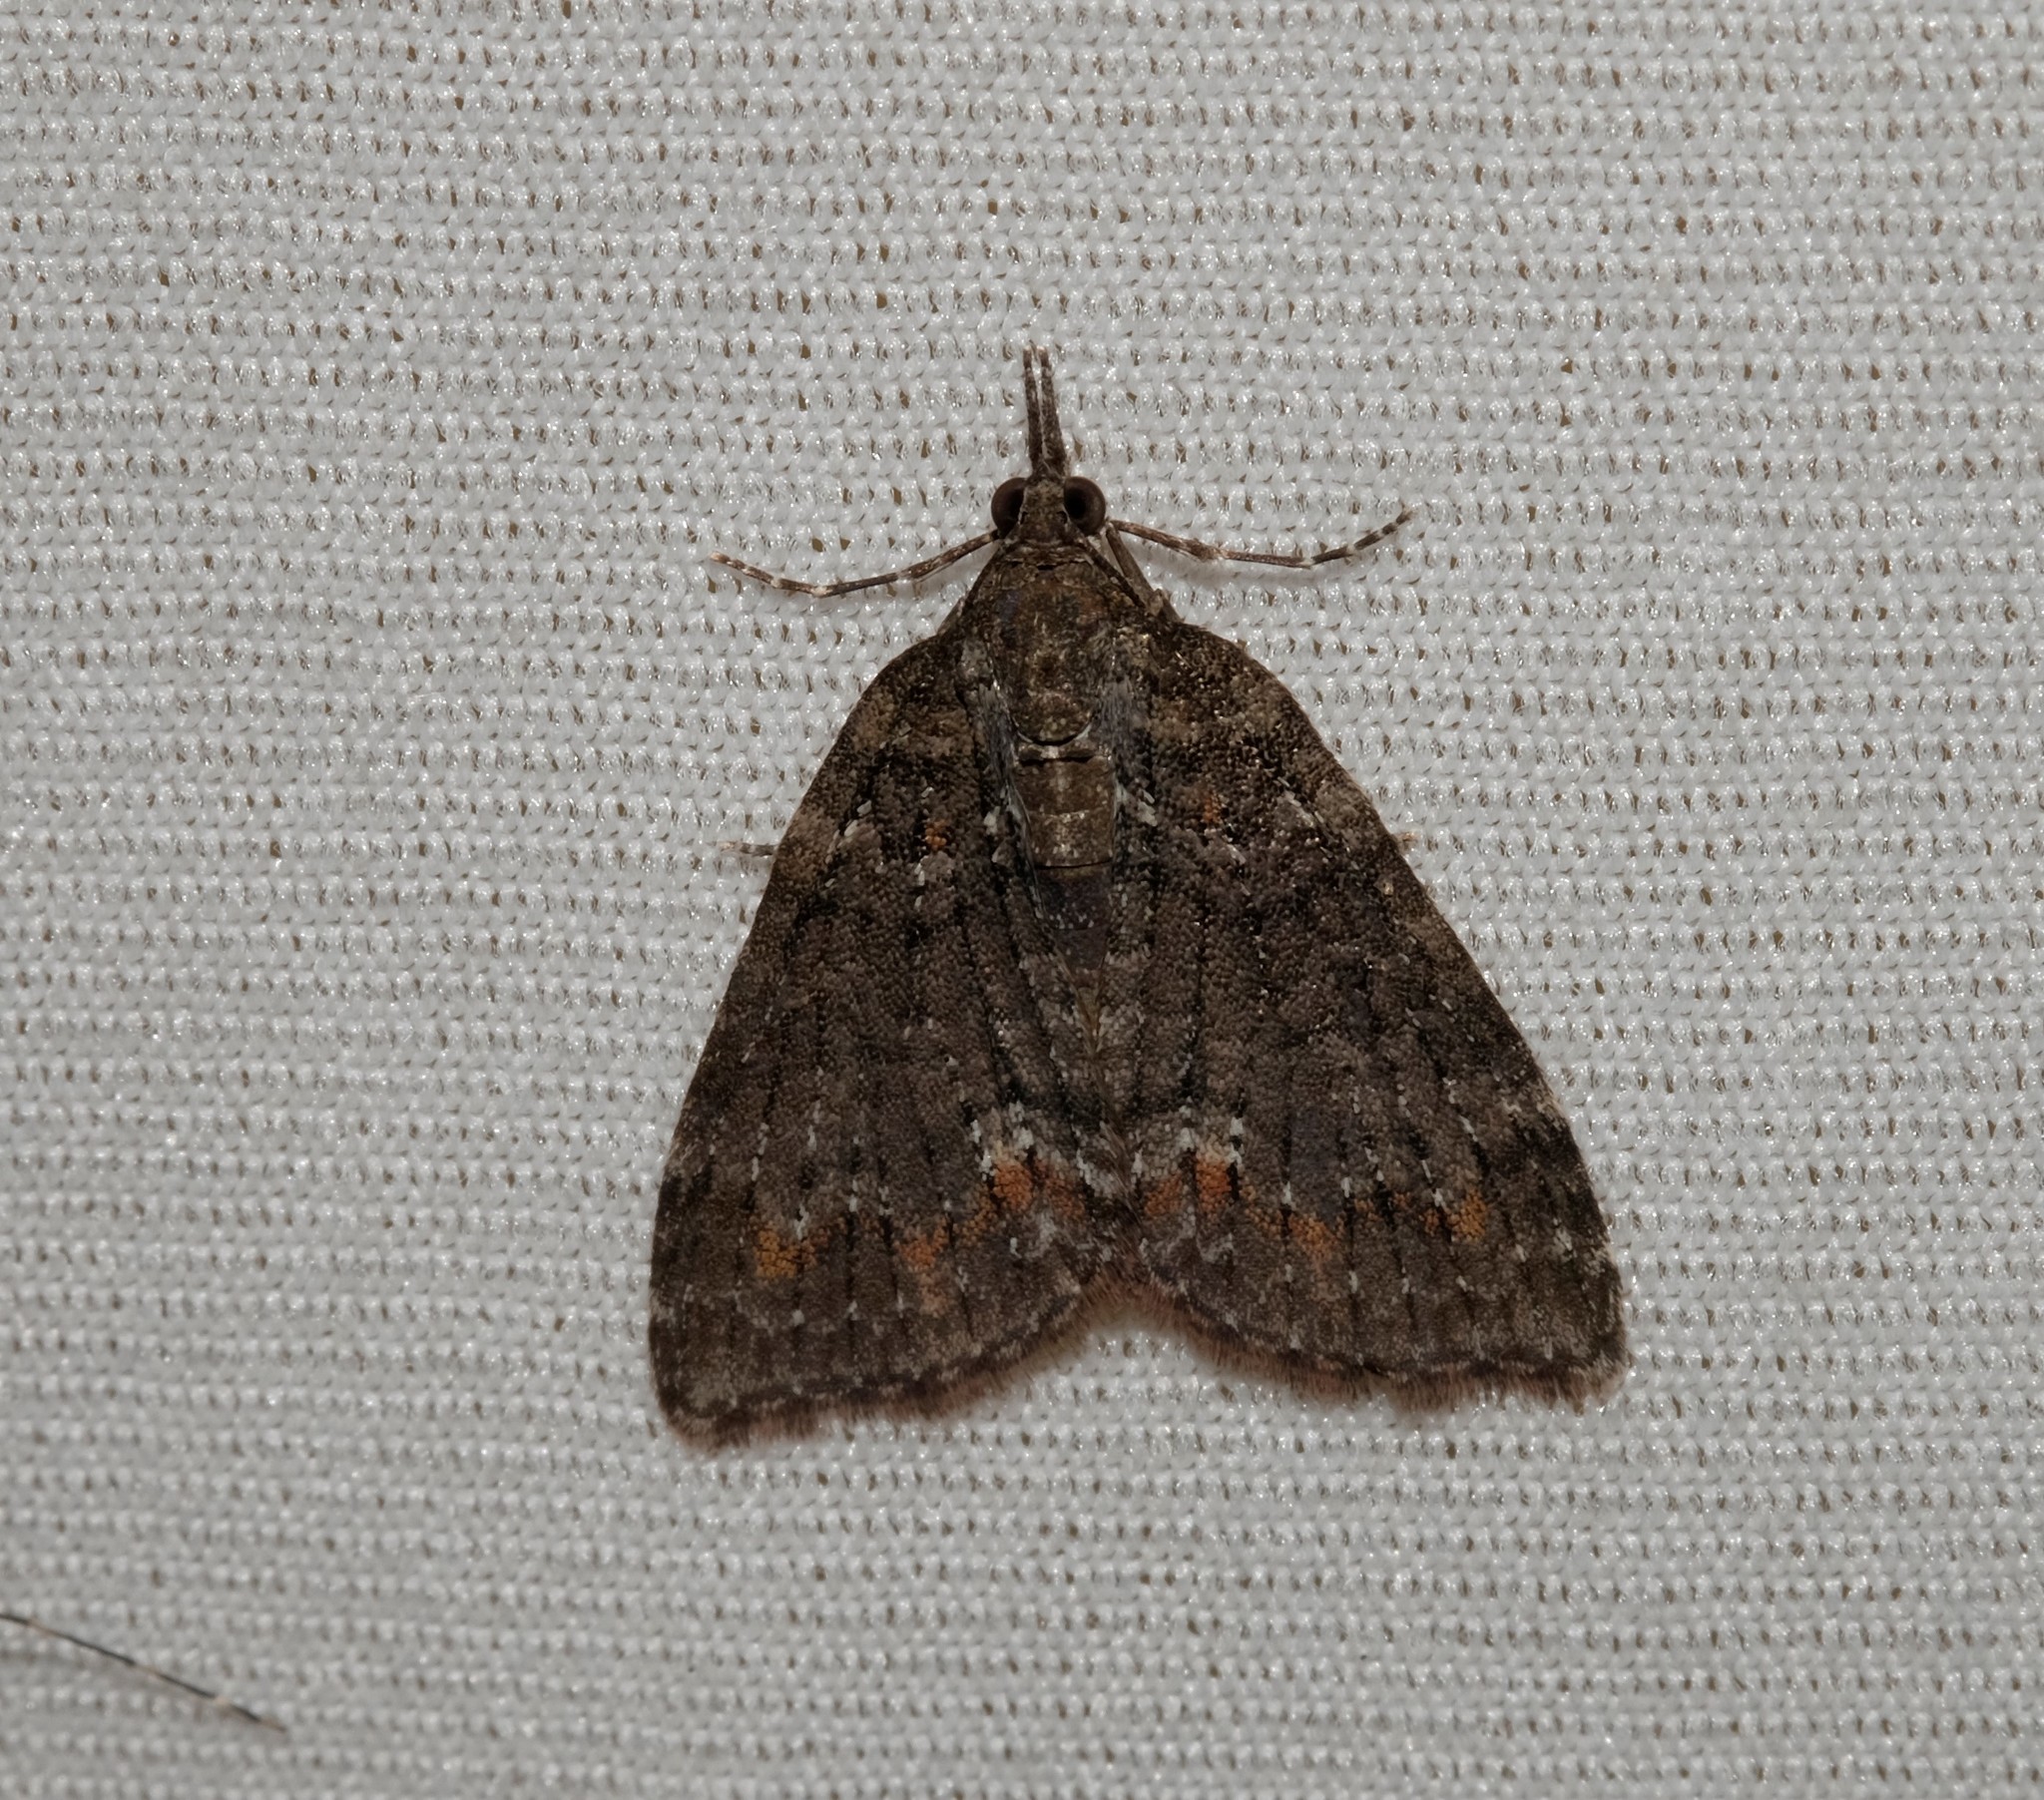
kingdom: Animalia
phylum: Arthropoda
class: Insecta
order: Lepidoptera
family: Geometridae
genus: Microdes
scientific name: Microdes villosata
